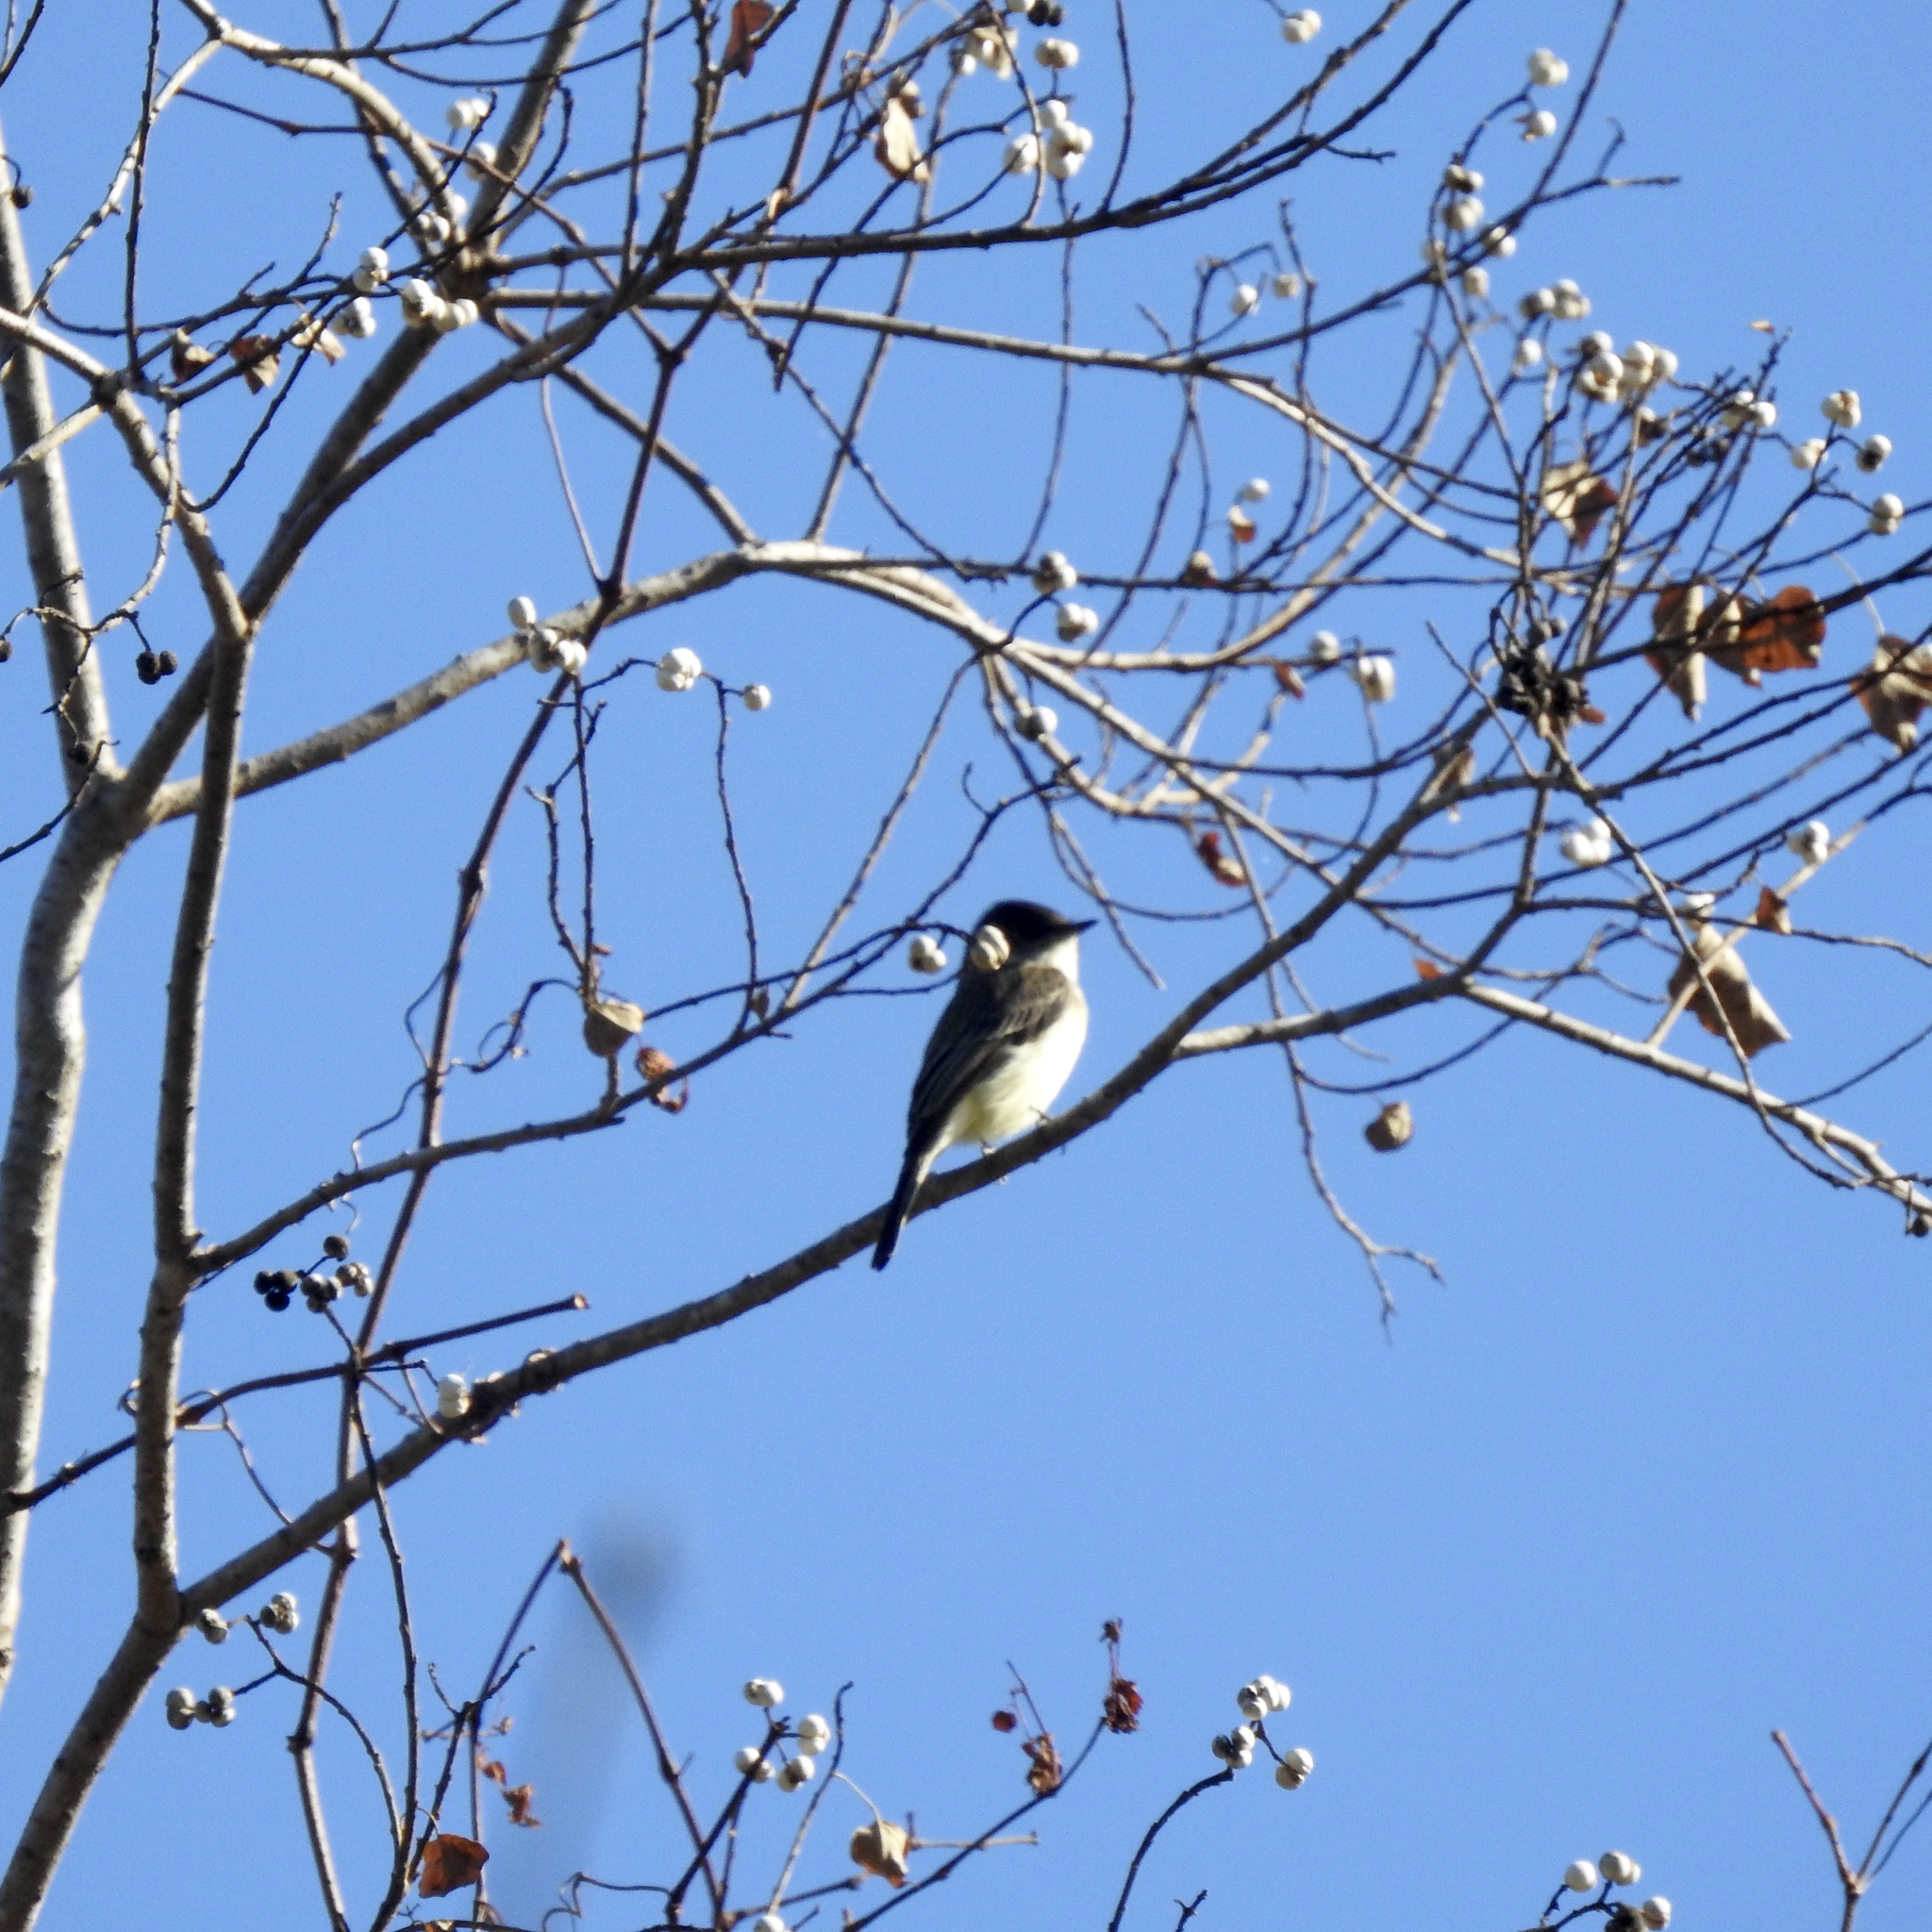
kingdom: Animalia
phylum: Chordata
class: Aves
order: Passeriformes
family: Tyrannidae
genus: Sayornis
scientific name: Sayornis phoebe
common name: Eastern phoebe
